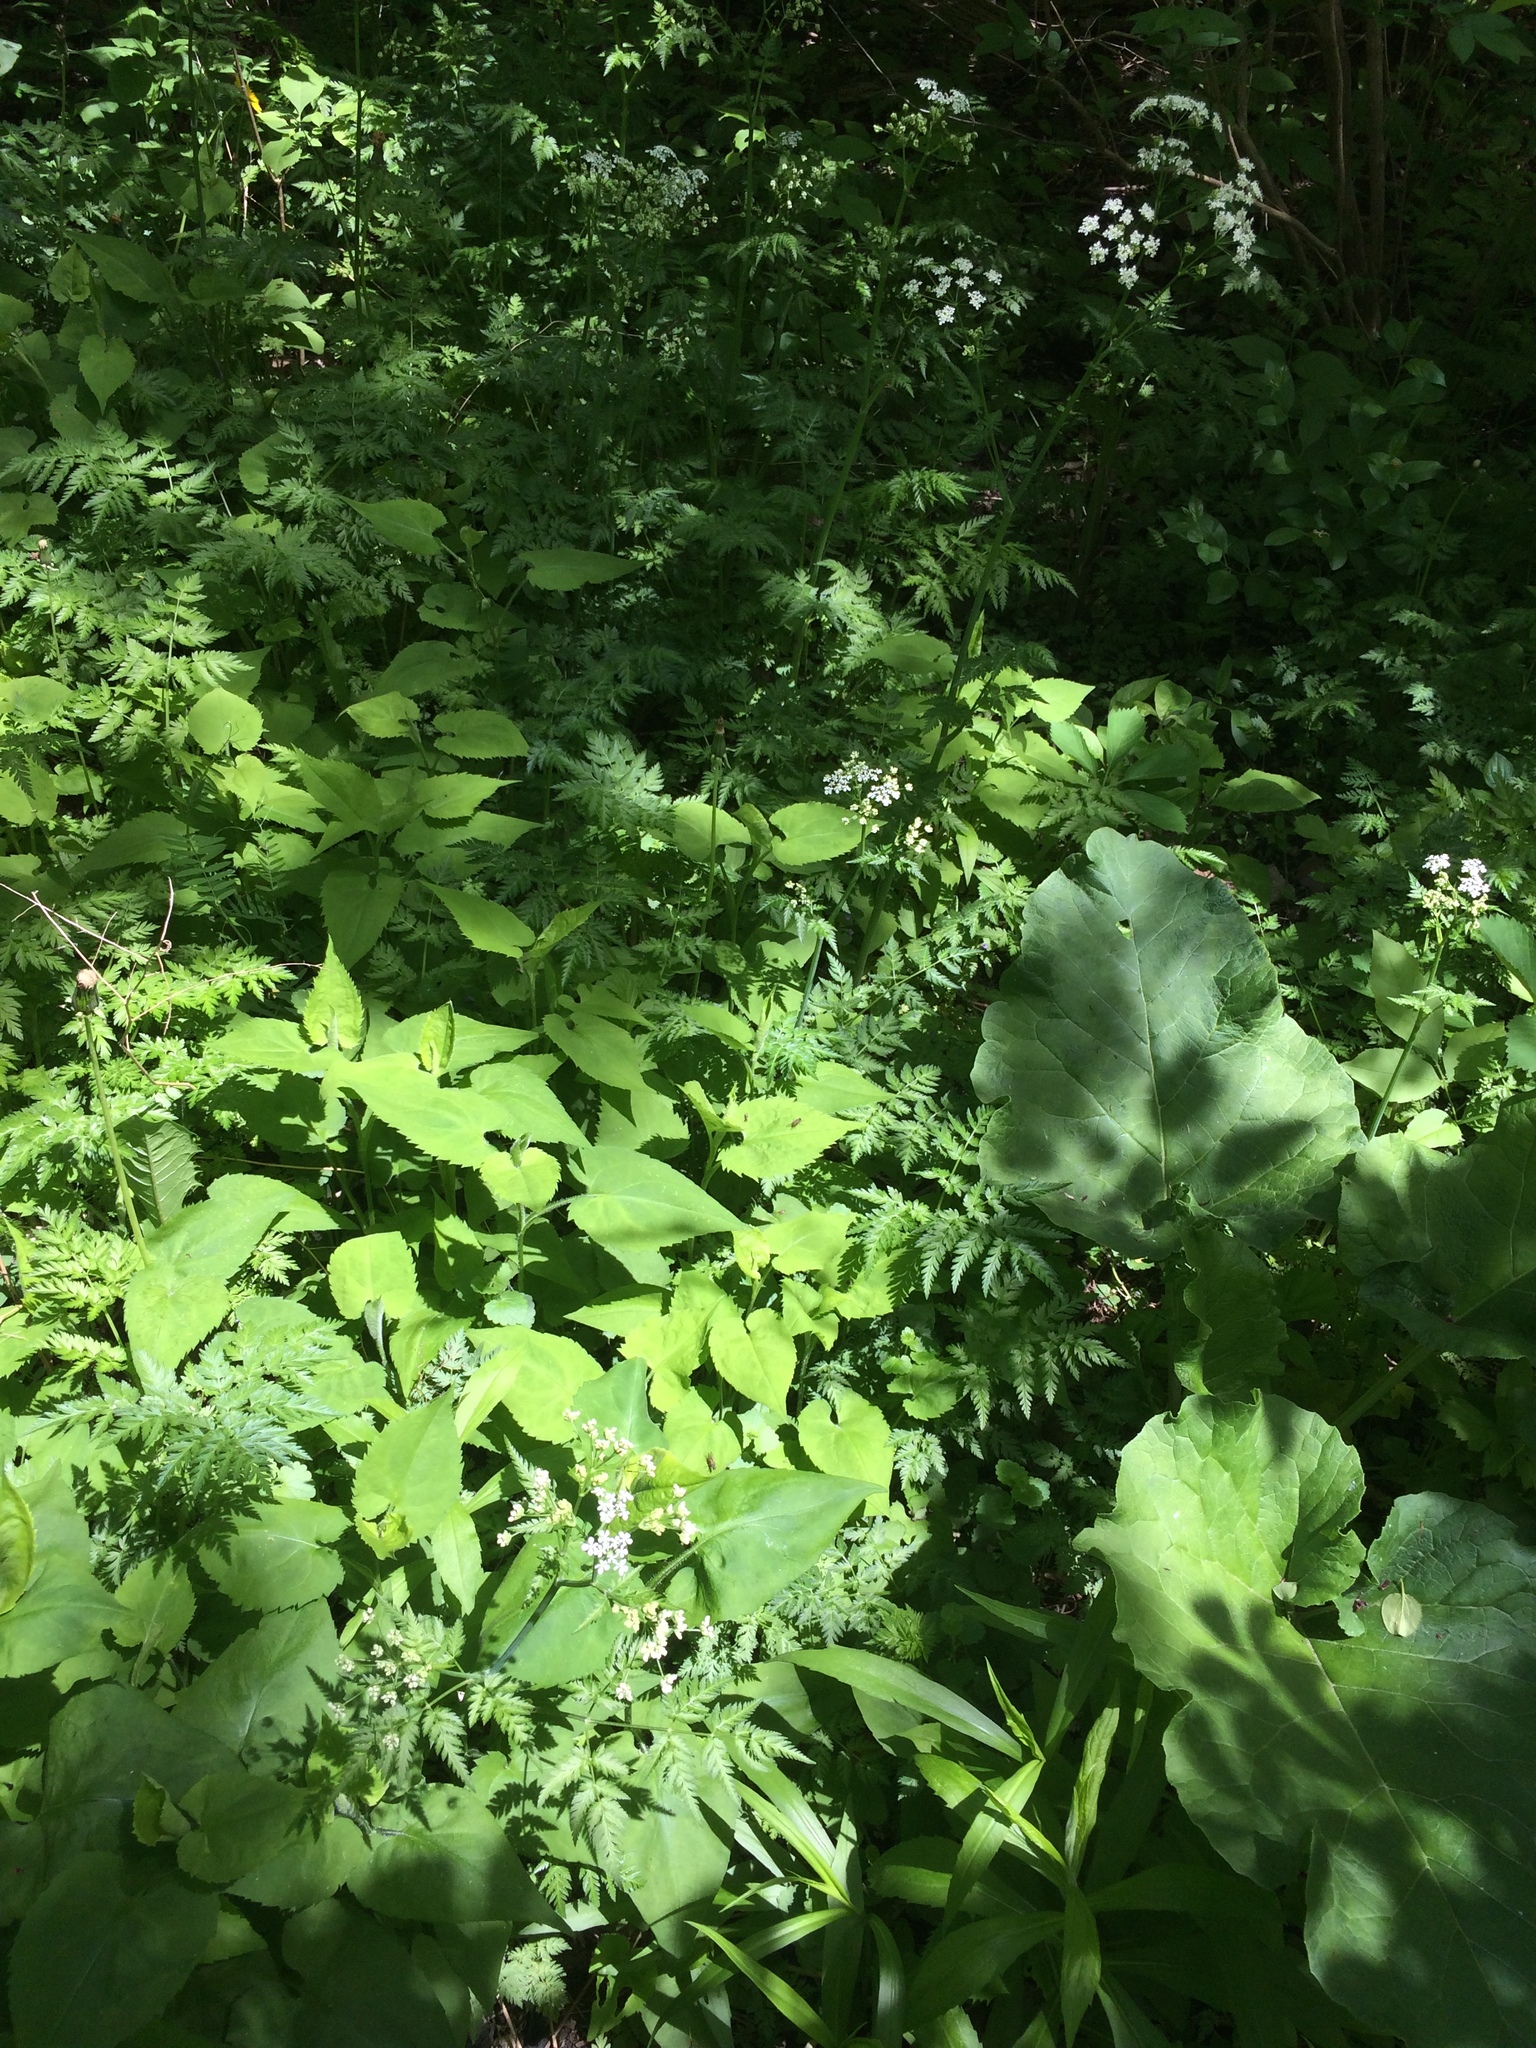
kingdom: Plantae
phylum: Tracheophyta
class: Magnoliopsida
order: Asterales
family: Asteraceae
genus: Symphyotrichum
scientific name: Symphyotrichum cordifolium
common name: Beeweed
